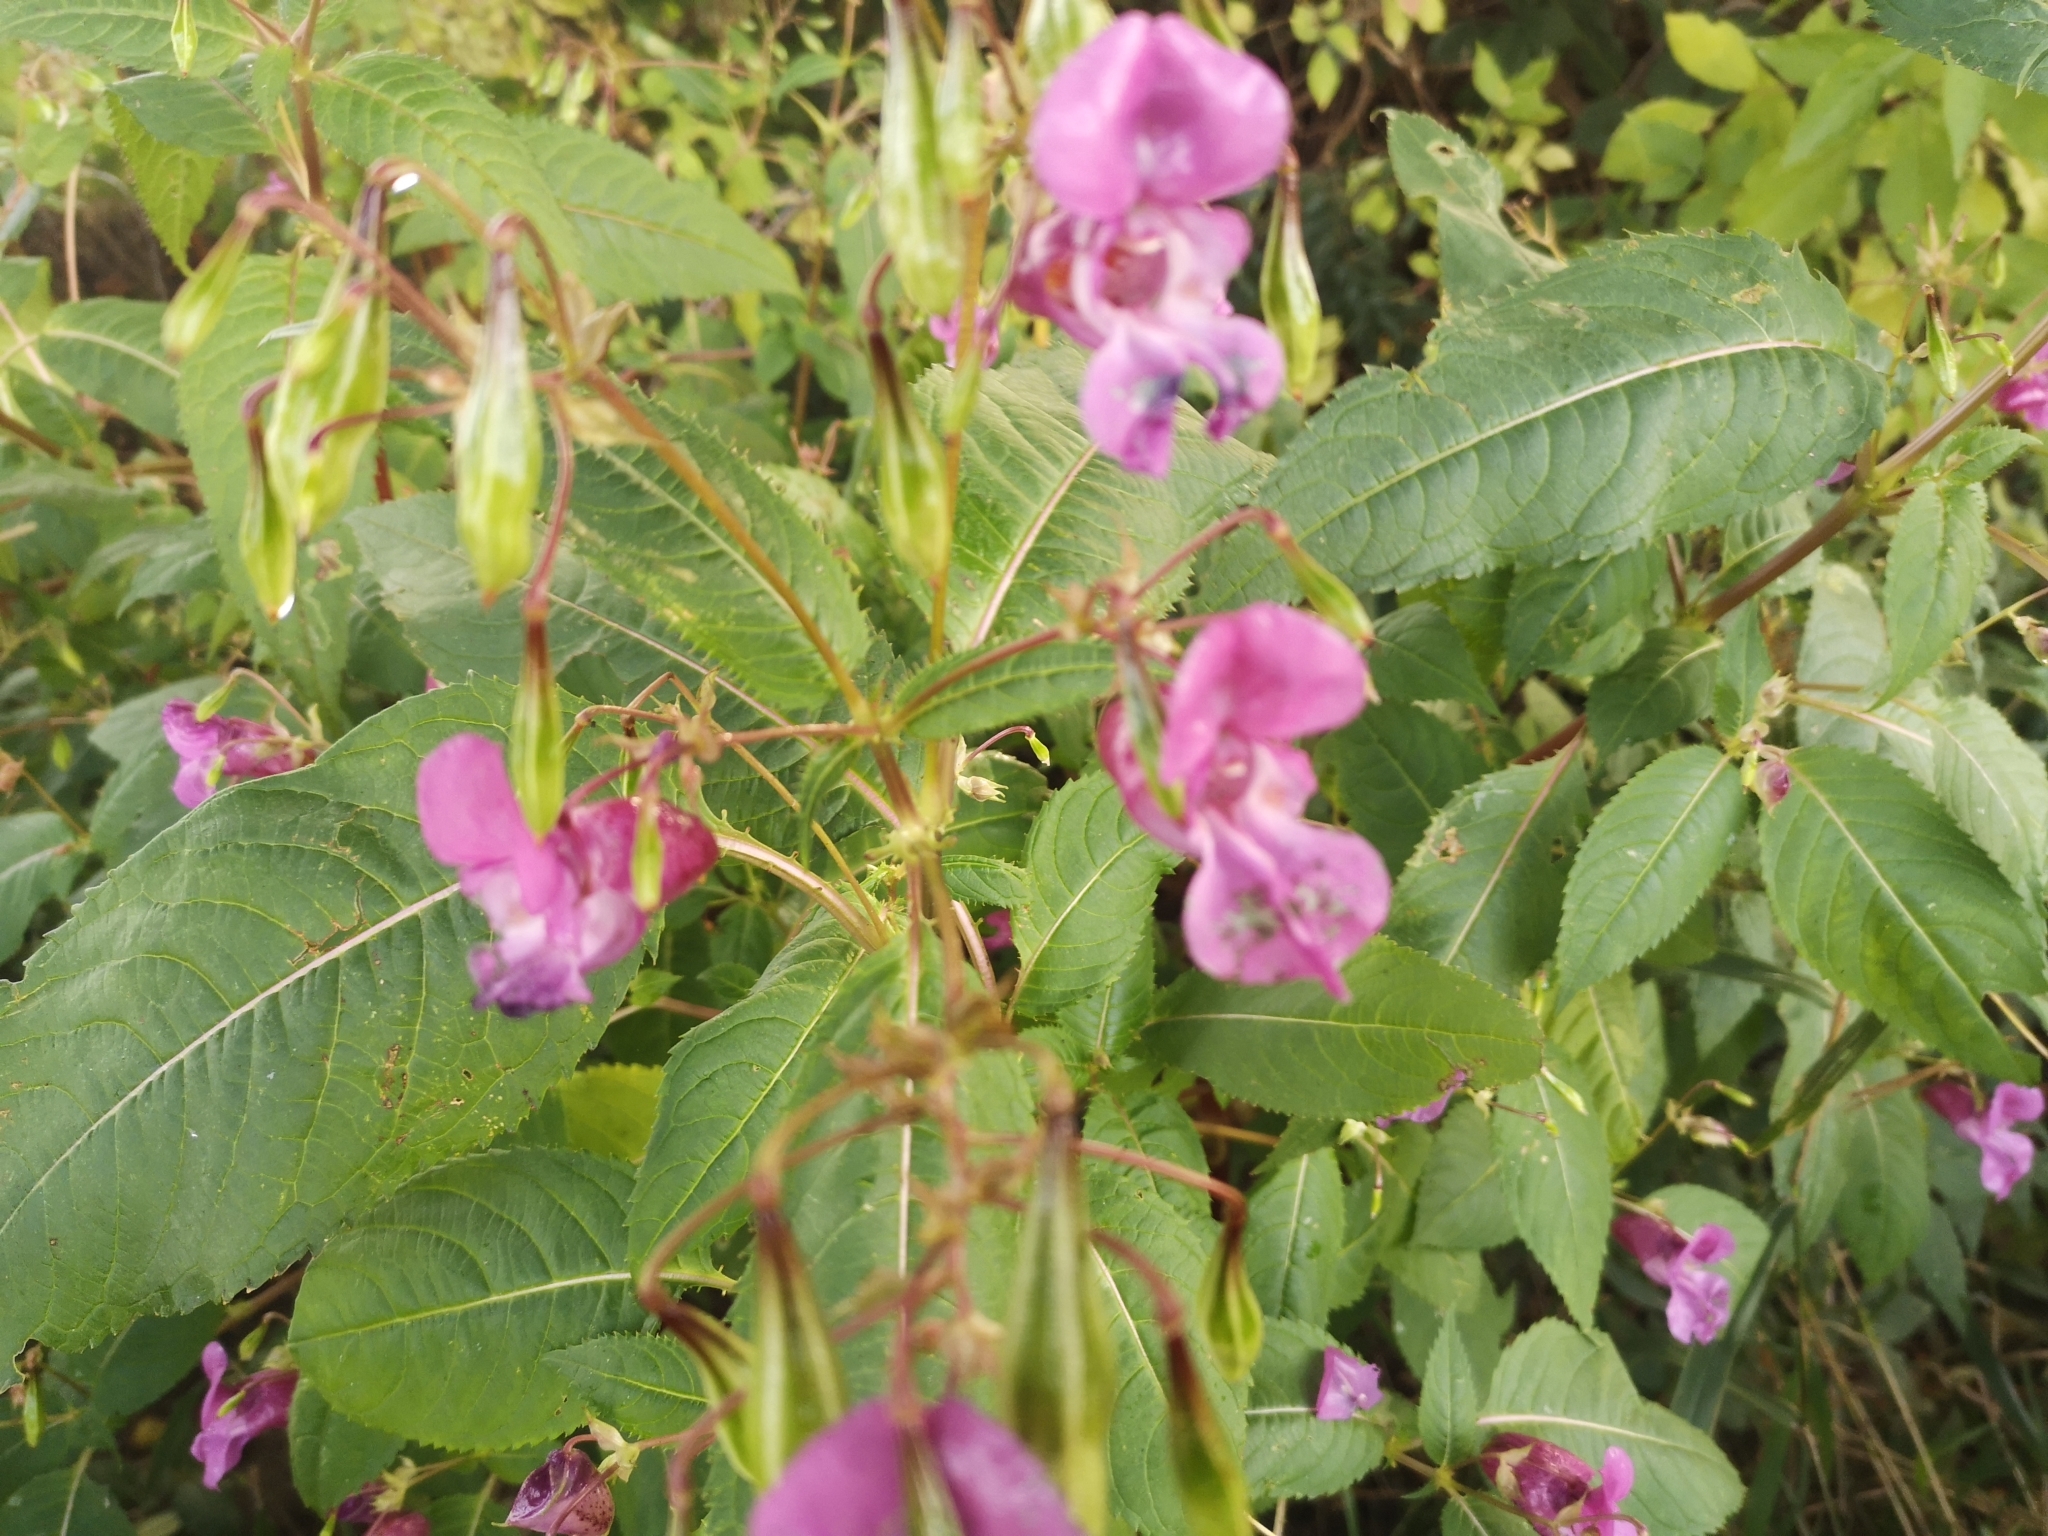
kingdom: Plantae
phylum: Tracheophyta
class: Magnoliopsida
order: Ericales
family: Balsaminaceae
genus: Impatiens
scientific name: Impatiens glandulifera
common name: Himalayan balsam
